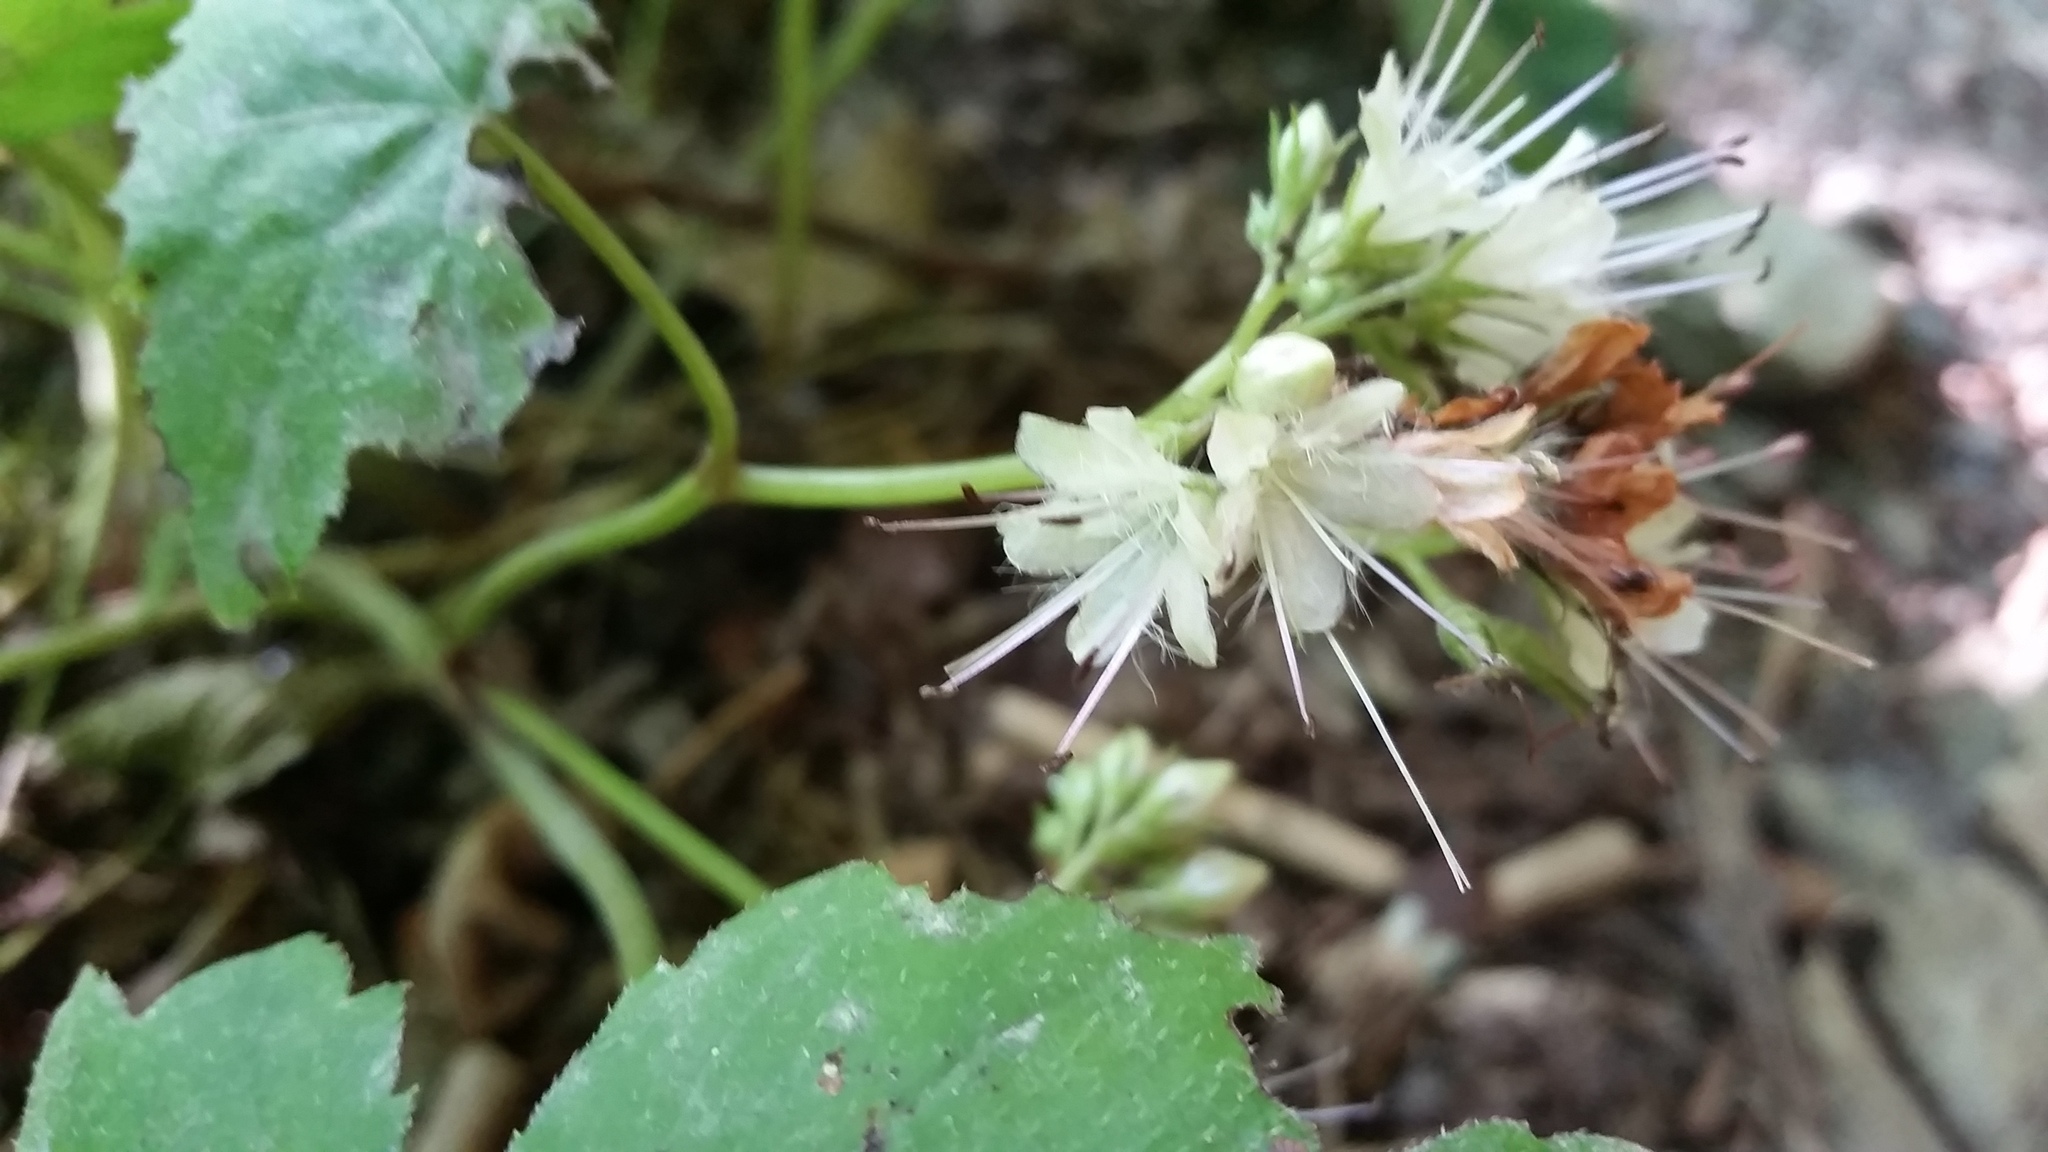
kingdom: Plantae
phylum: Tracheophyta
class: Magnoliopsida
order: Boraginales
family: Hydrophyllaceae
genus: Hydrophyllum
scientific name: Hydrophyllum canadense
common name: Canada waterleaf
